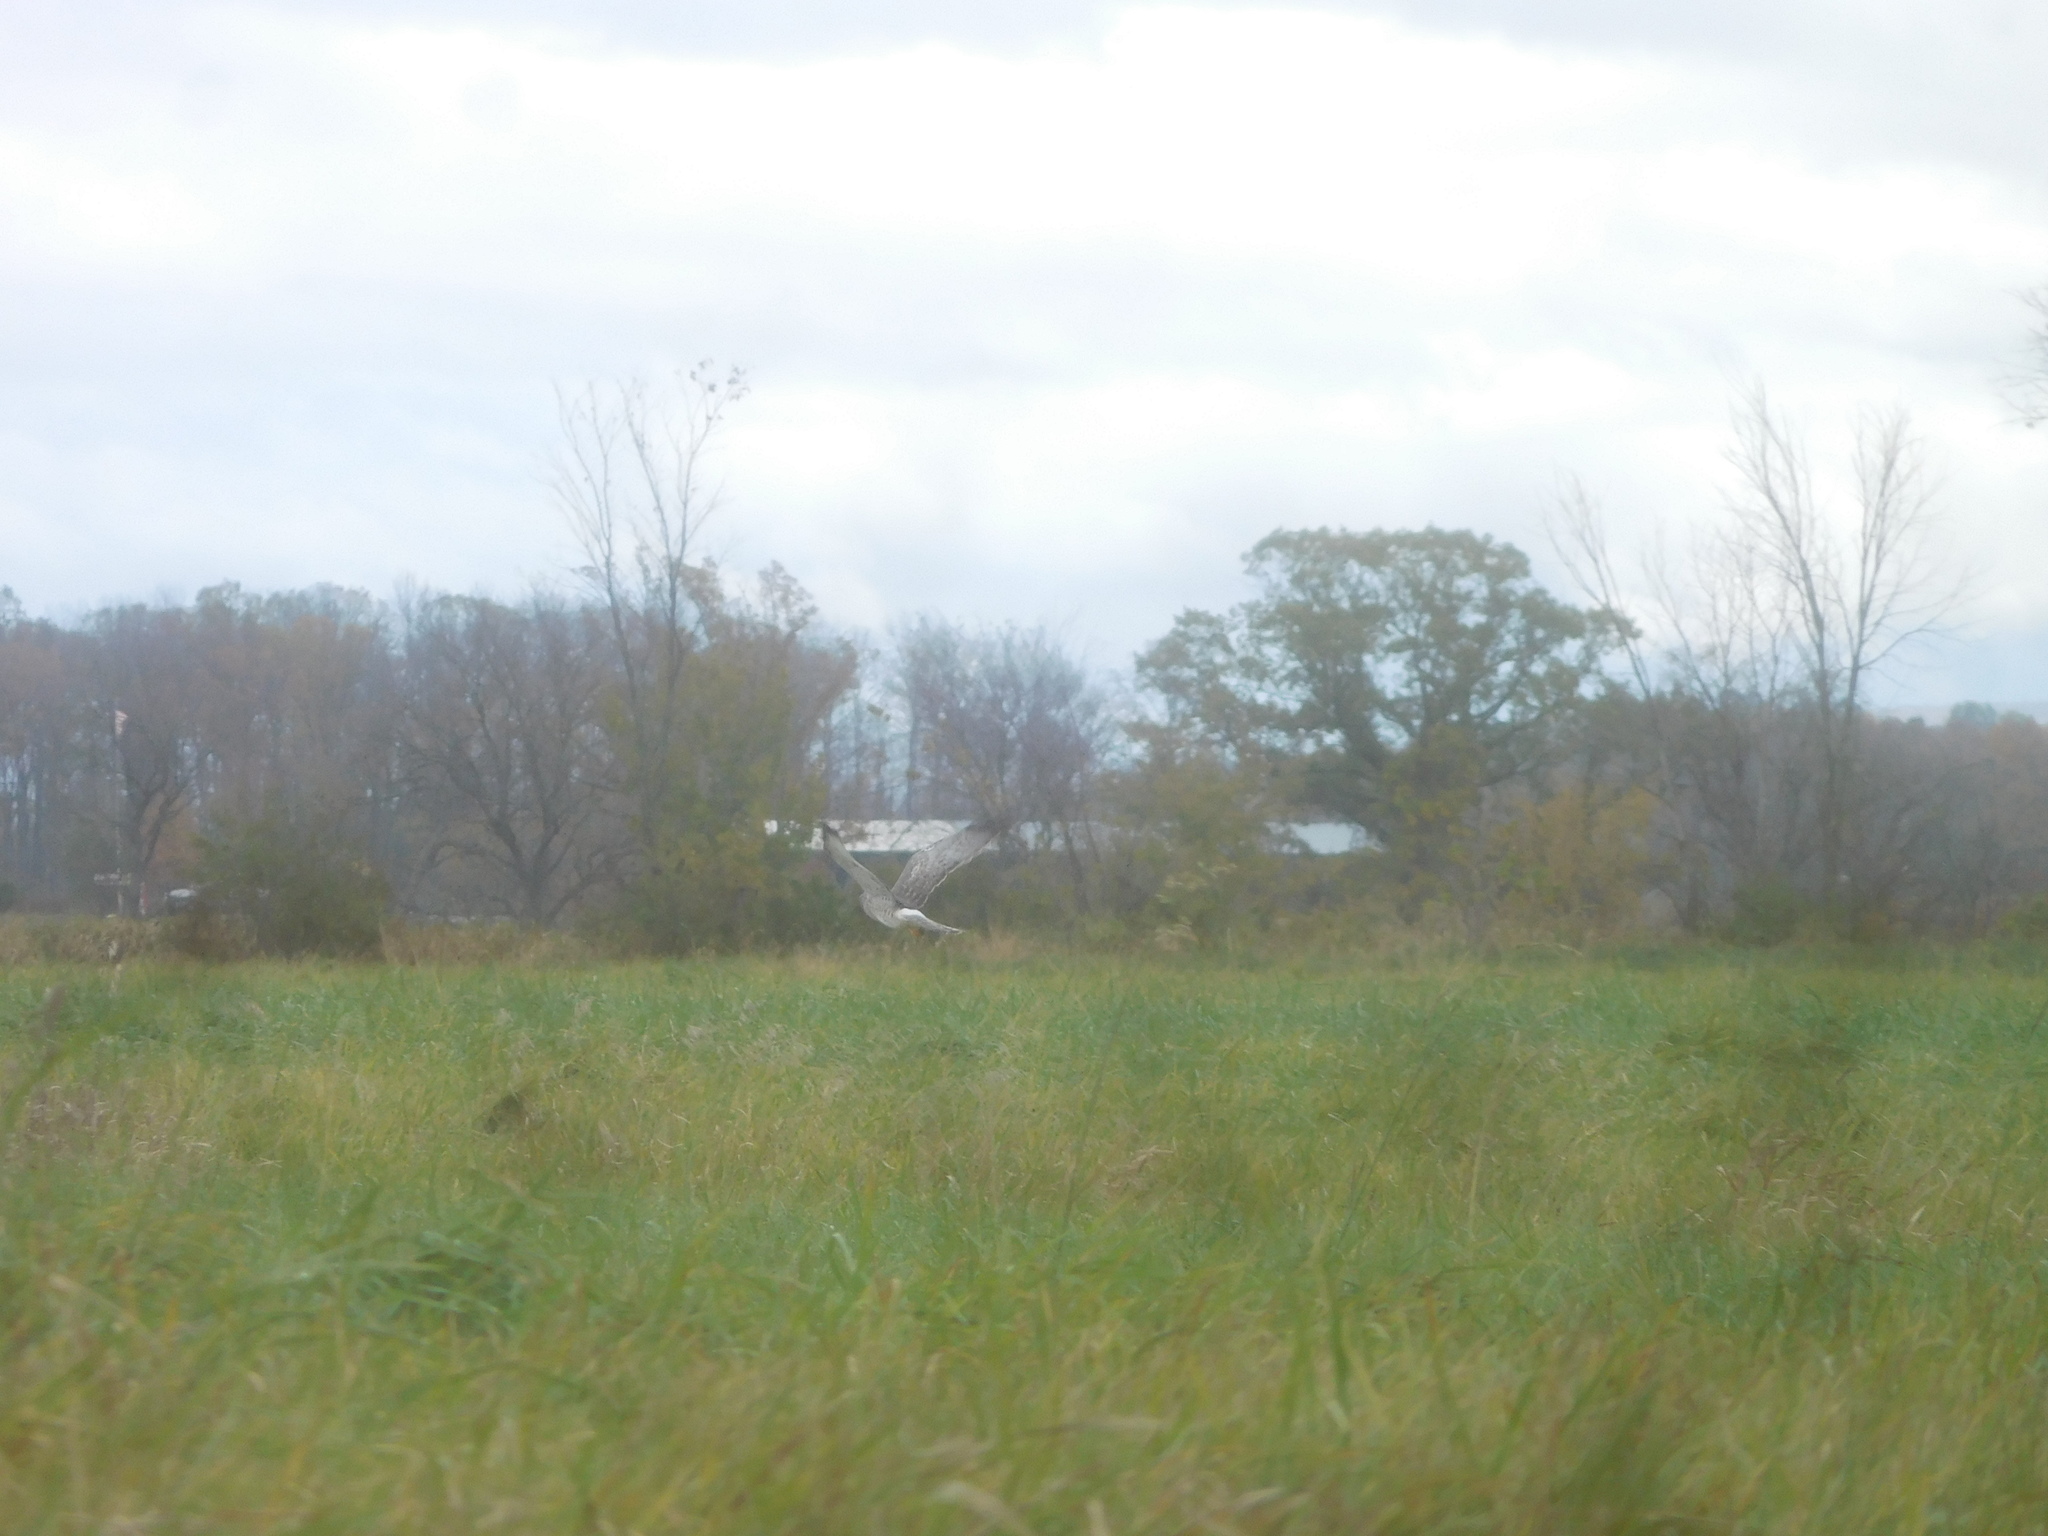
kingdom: Animalia
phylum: Chordata
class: Aves
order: Accipitriformes
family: Accipitridae
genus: Circus
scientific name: Circus cyaneus
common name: Hen harrier
